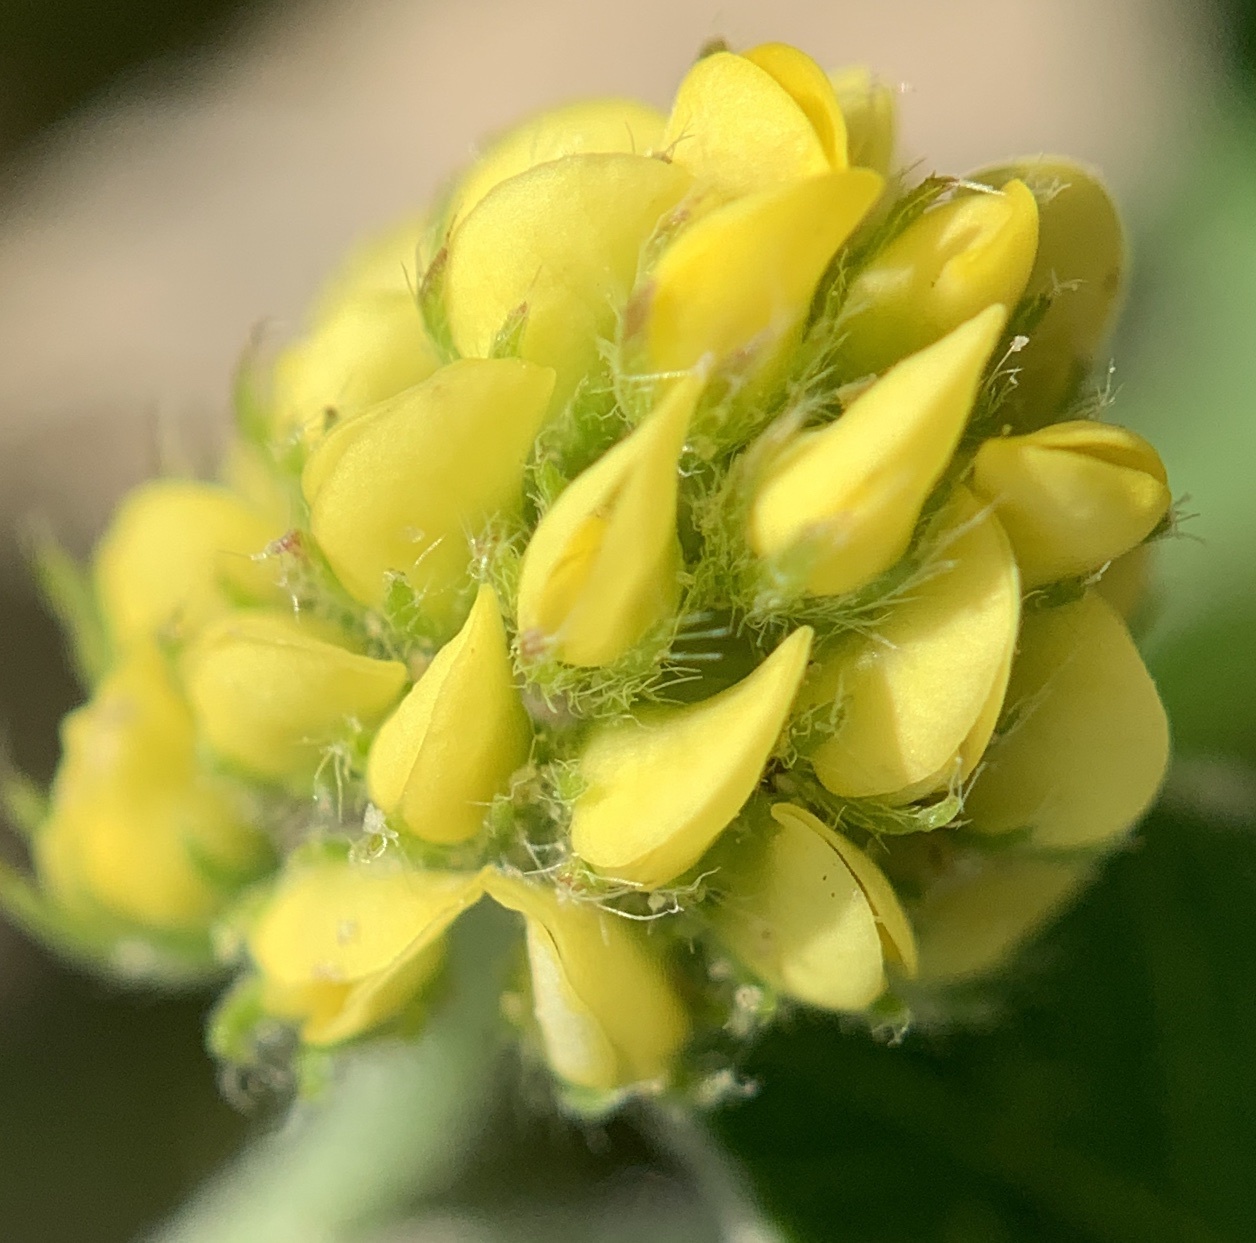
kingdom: Plantae
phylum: Tracheophyta
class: Magnoliopsida
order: Fabales
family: Fabaceae
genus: Medicago
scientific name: Medicago lupulina
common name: Black medick
